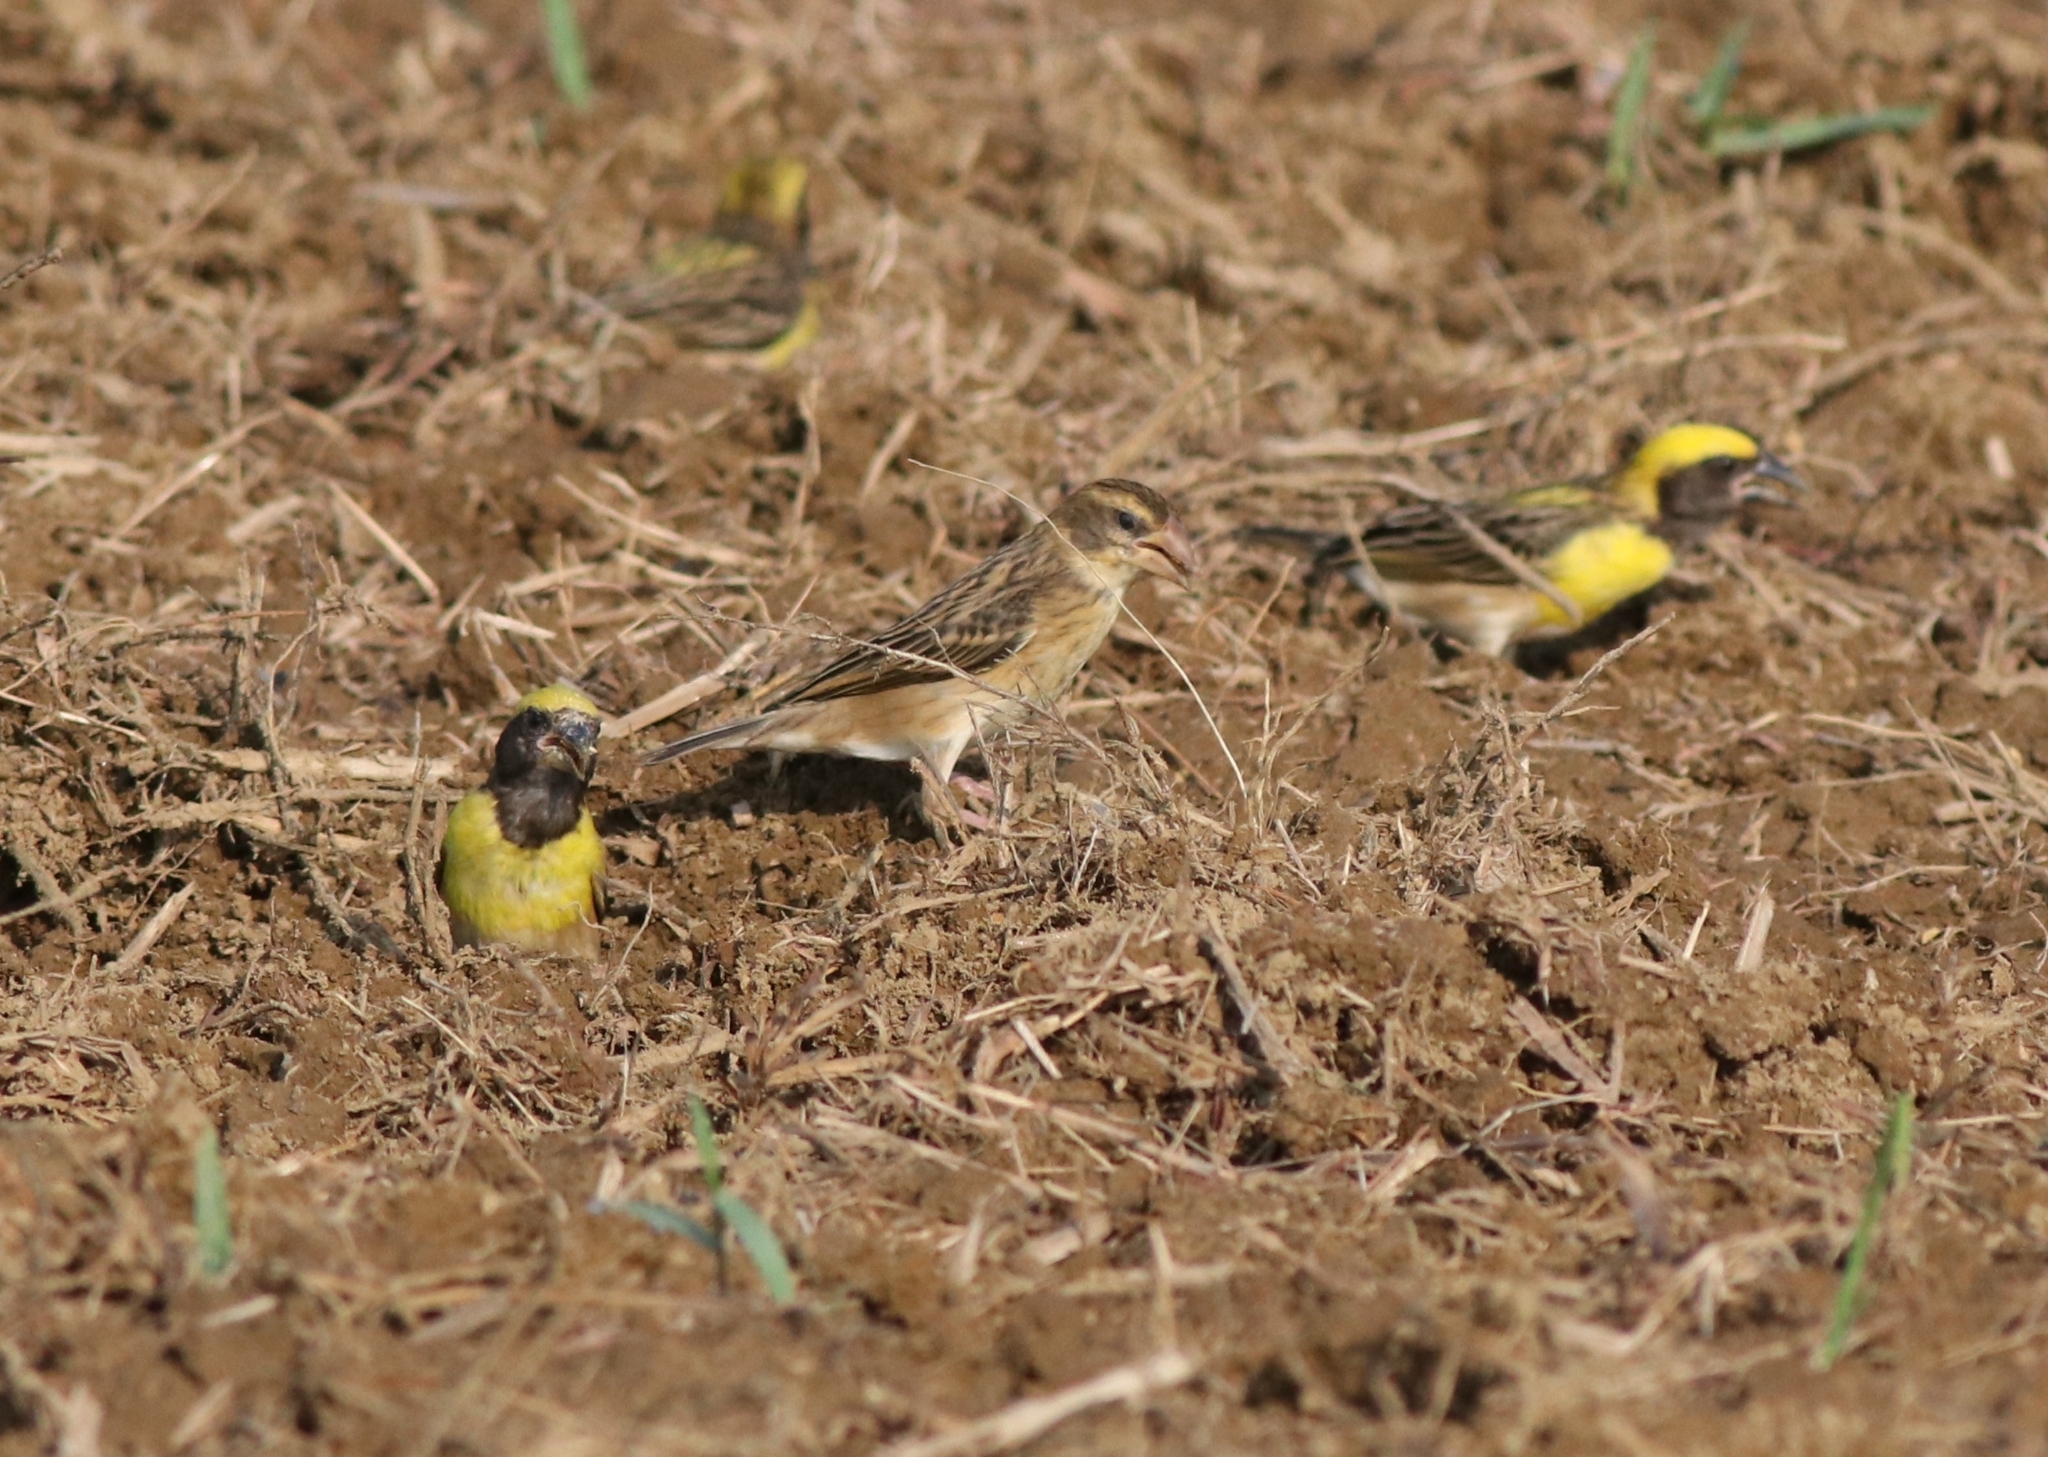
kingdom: Animalia
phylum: Chordata
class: Aves
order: Passeriformes
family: Ploceidae
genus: Ploceus
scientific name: Ploceus philippinus
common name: Baya weaver
